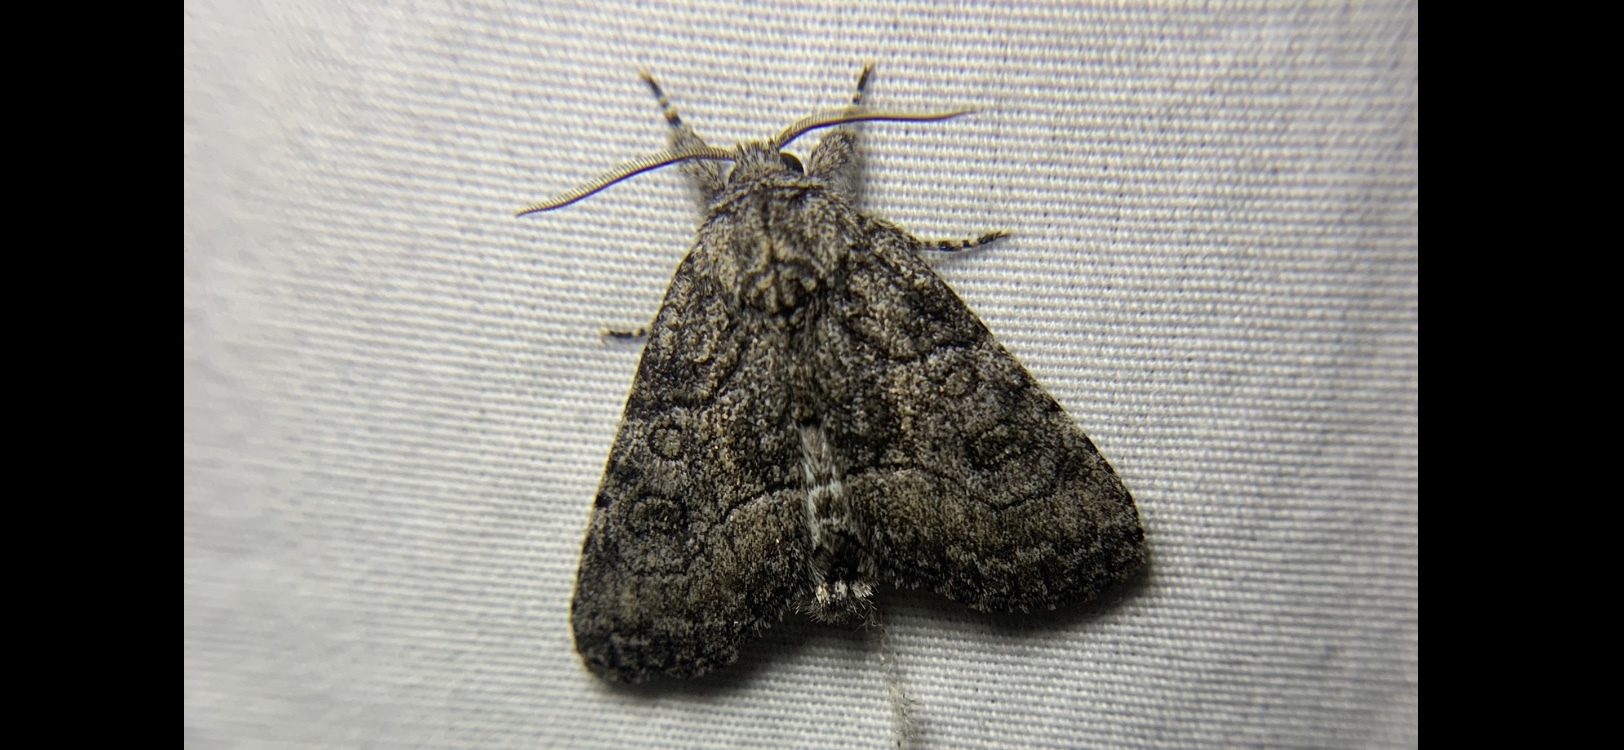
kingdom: Animalia
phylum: Arthropoda
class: Insecta
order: Lepidoptera
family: Noctuidae
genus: Raphia
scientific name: Raphia frater
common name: Brother
